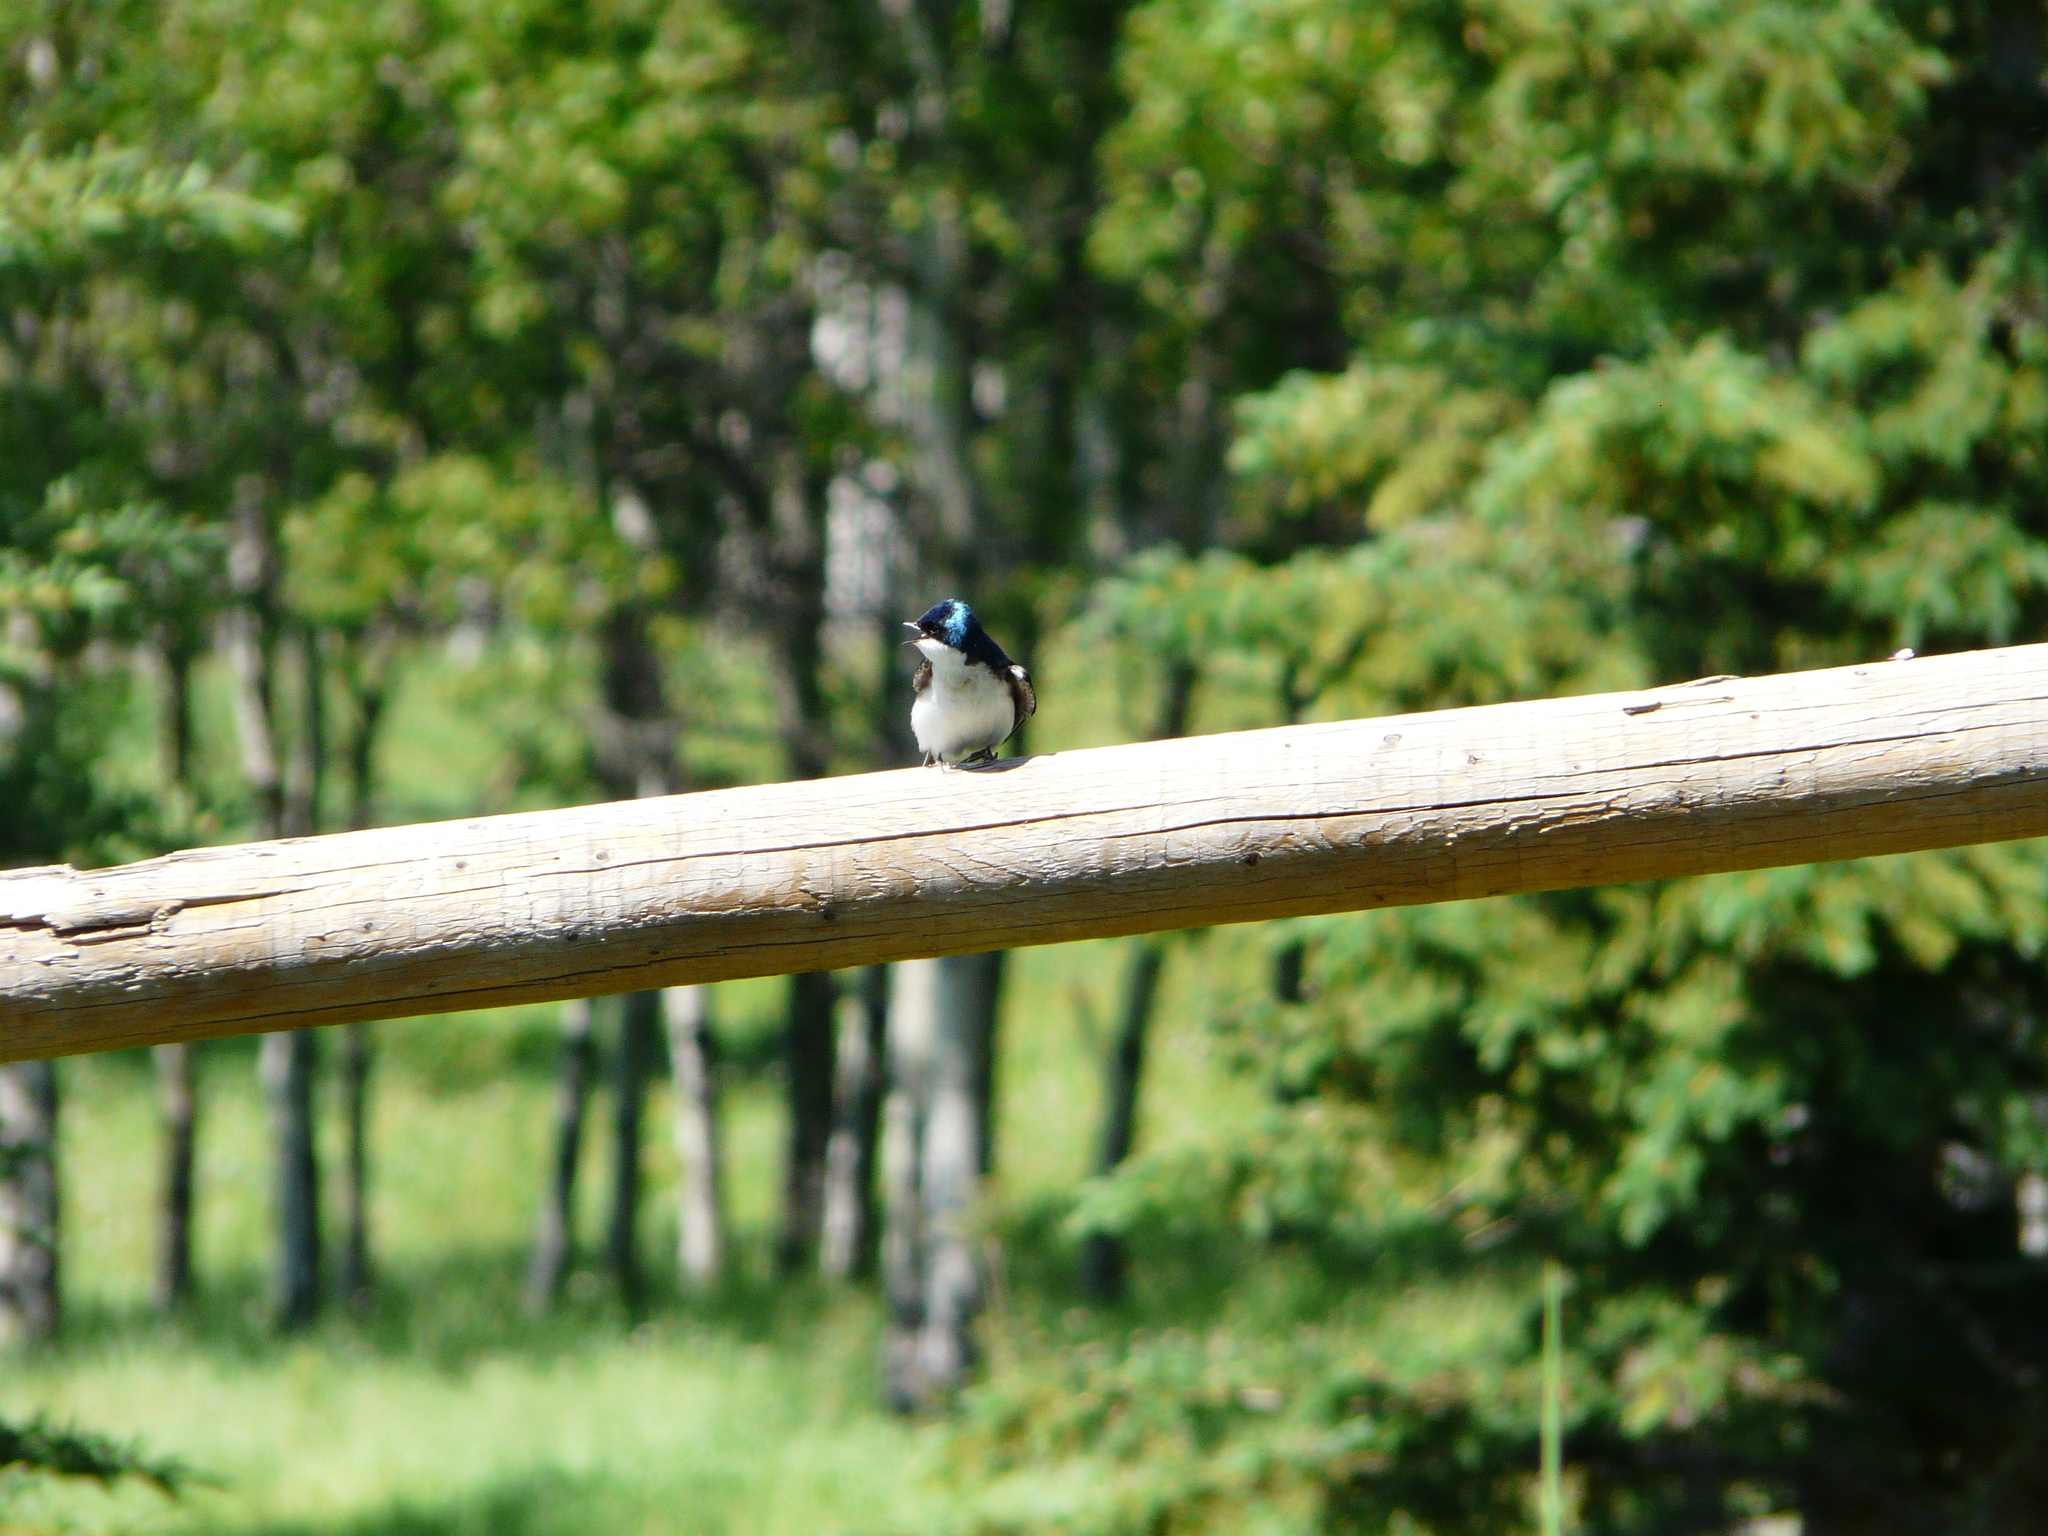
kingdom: Animalia
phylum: Chordata
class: Aves
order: Passeriformes
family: Hirundinidae
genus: Tachycineta
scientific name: Tachycineta bicolor
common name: Tree swallow
